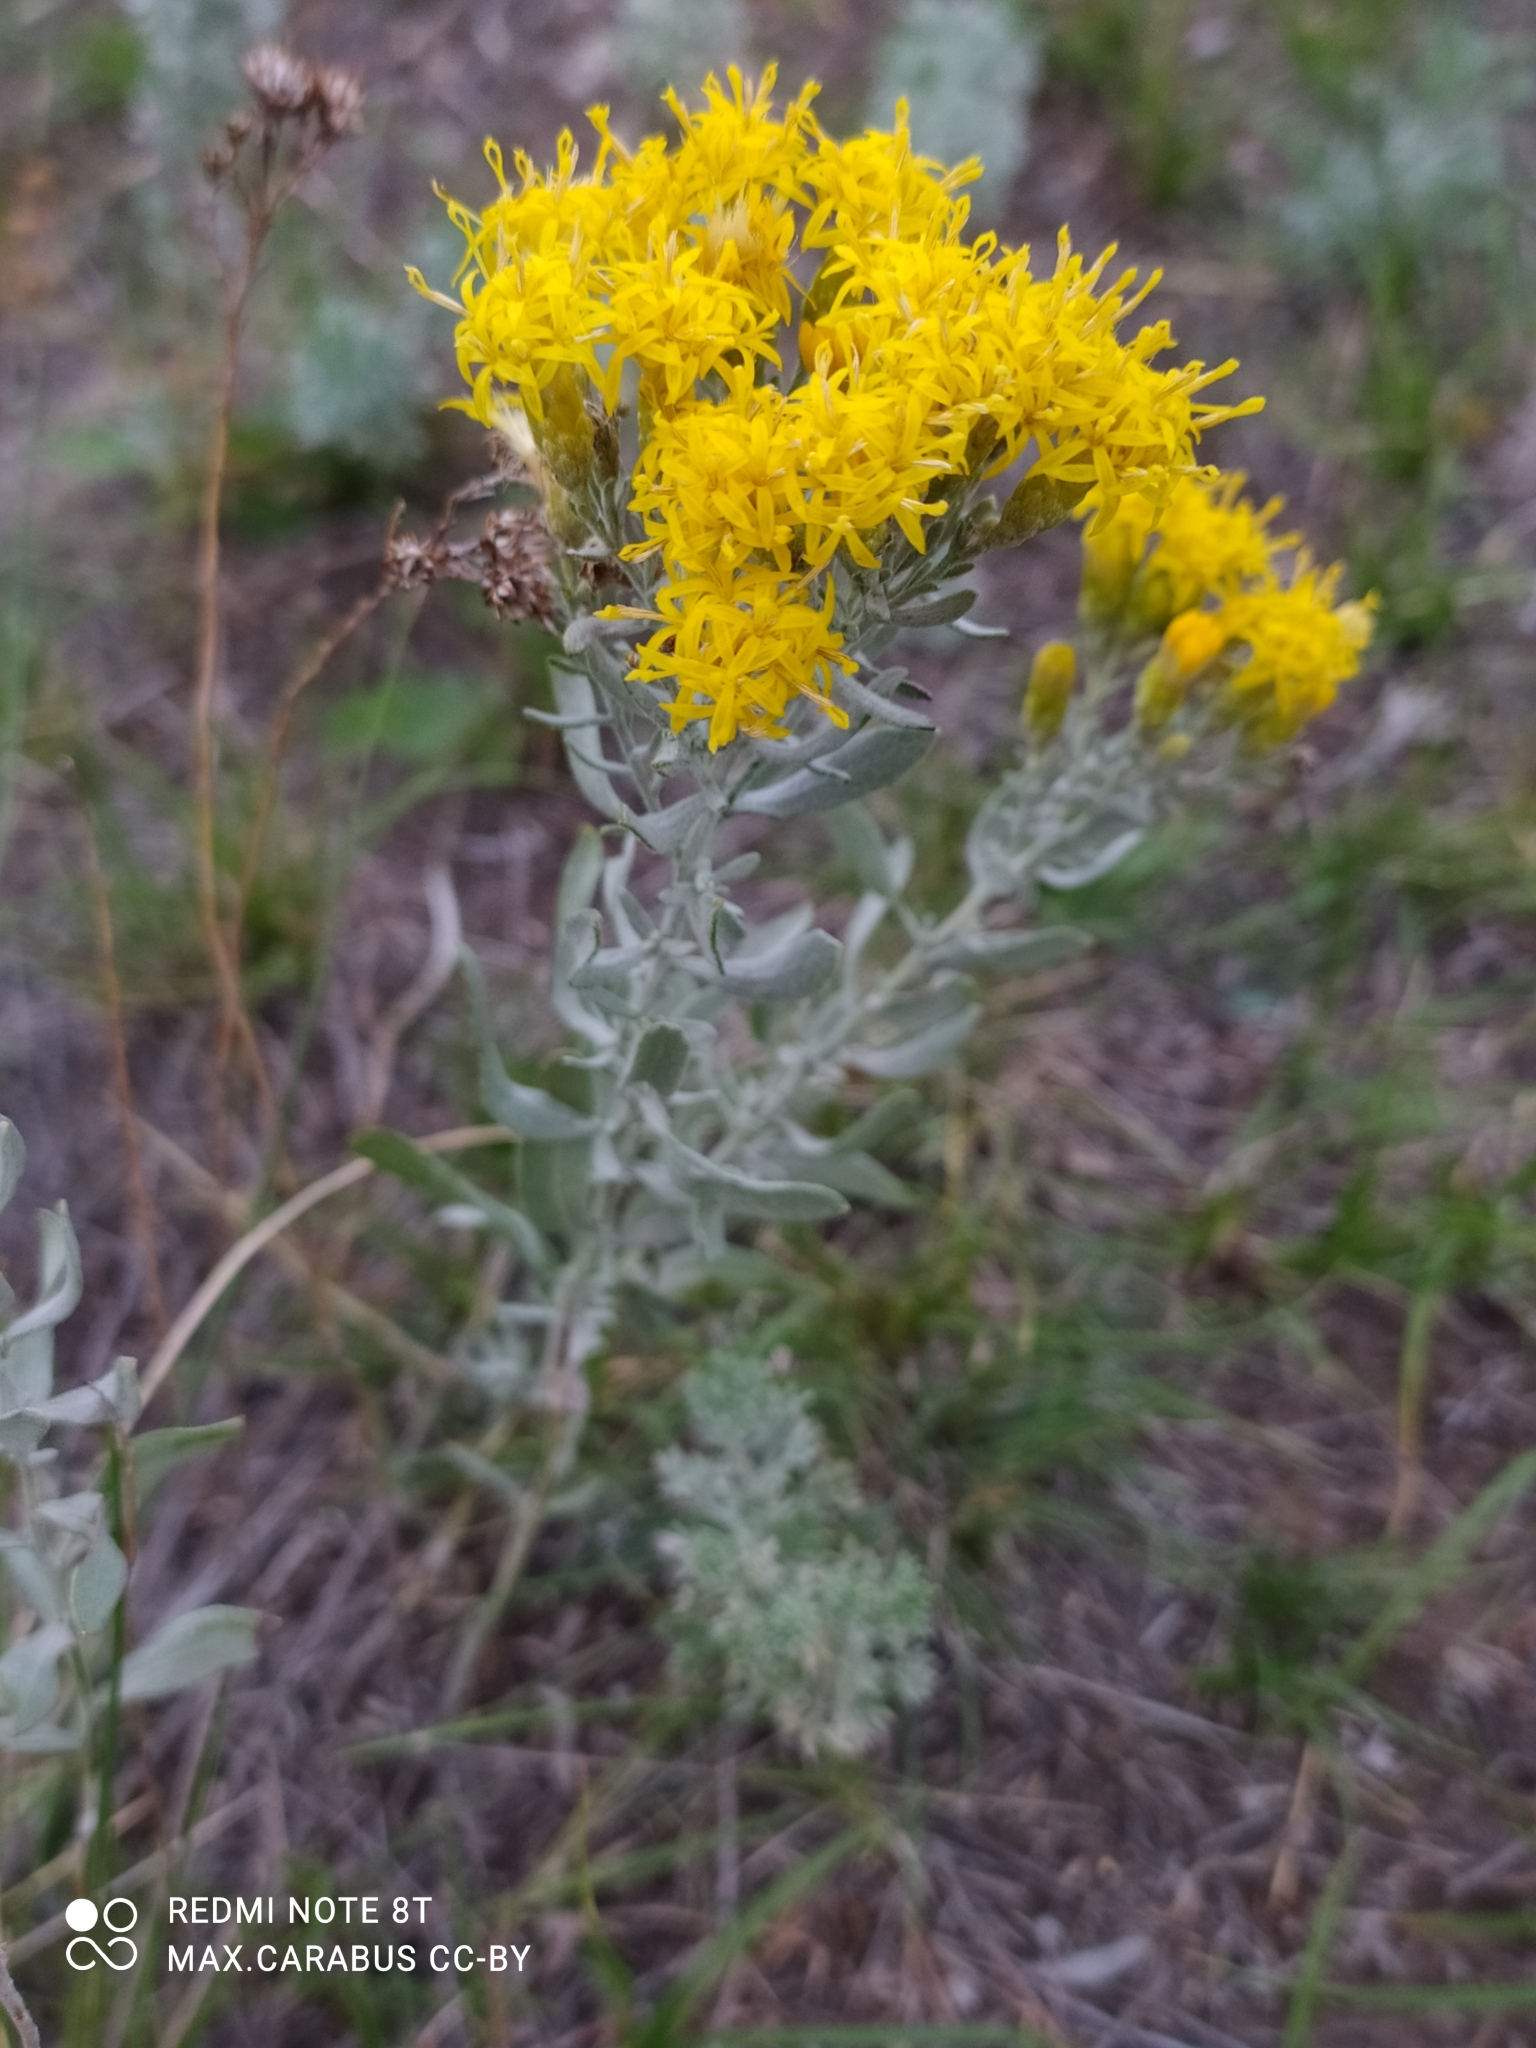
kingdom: Plantae
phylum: Tracheophyta
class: Magnoliopsida
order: Asterales
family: Asteraceae
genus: Galatella
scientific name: Galatella villosa
